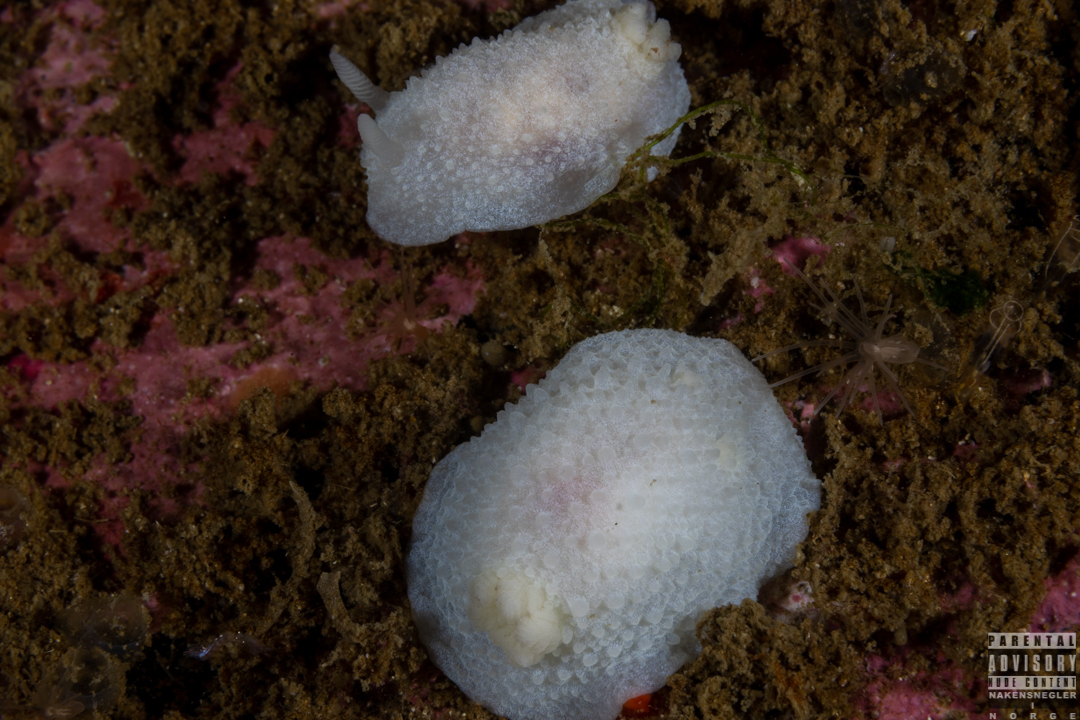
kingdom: Animalia
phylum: Mollusca
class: Gastropoda
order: Nudibranchia
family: Cadlinidae
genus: Aldisa
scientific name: Aldisa zetlandica
